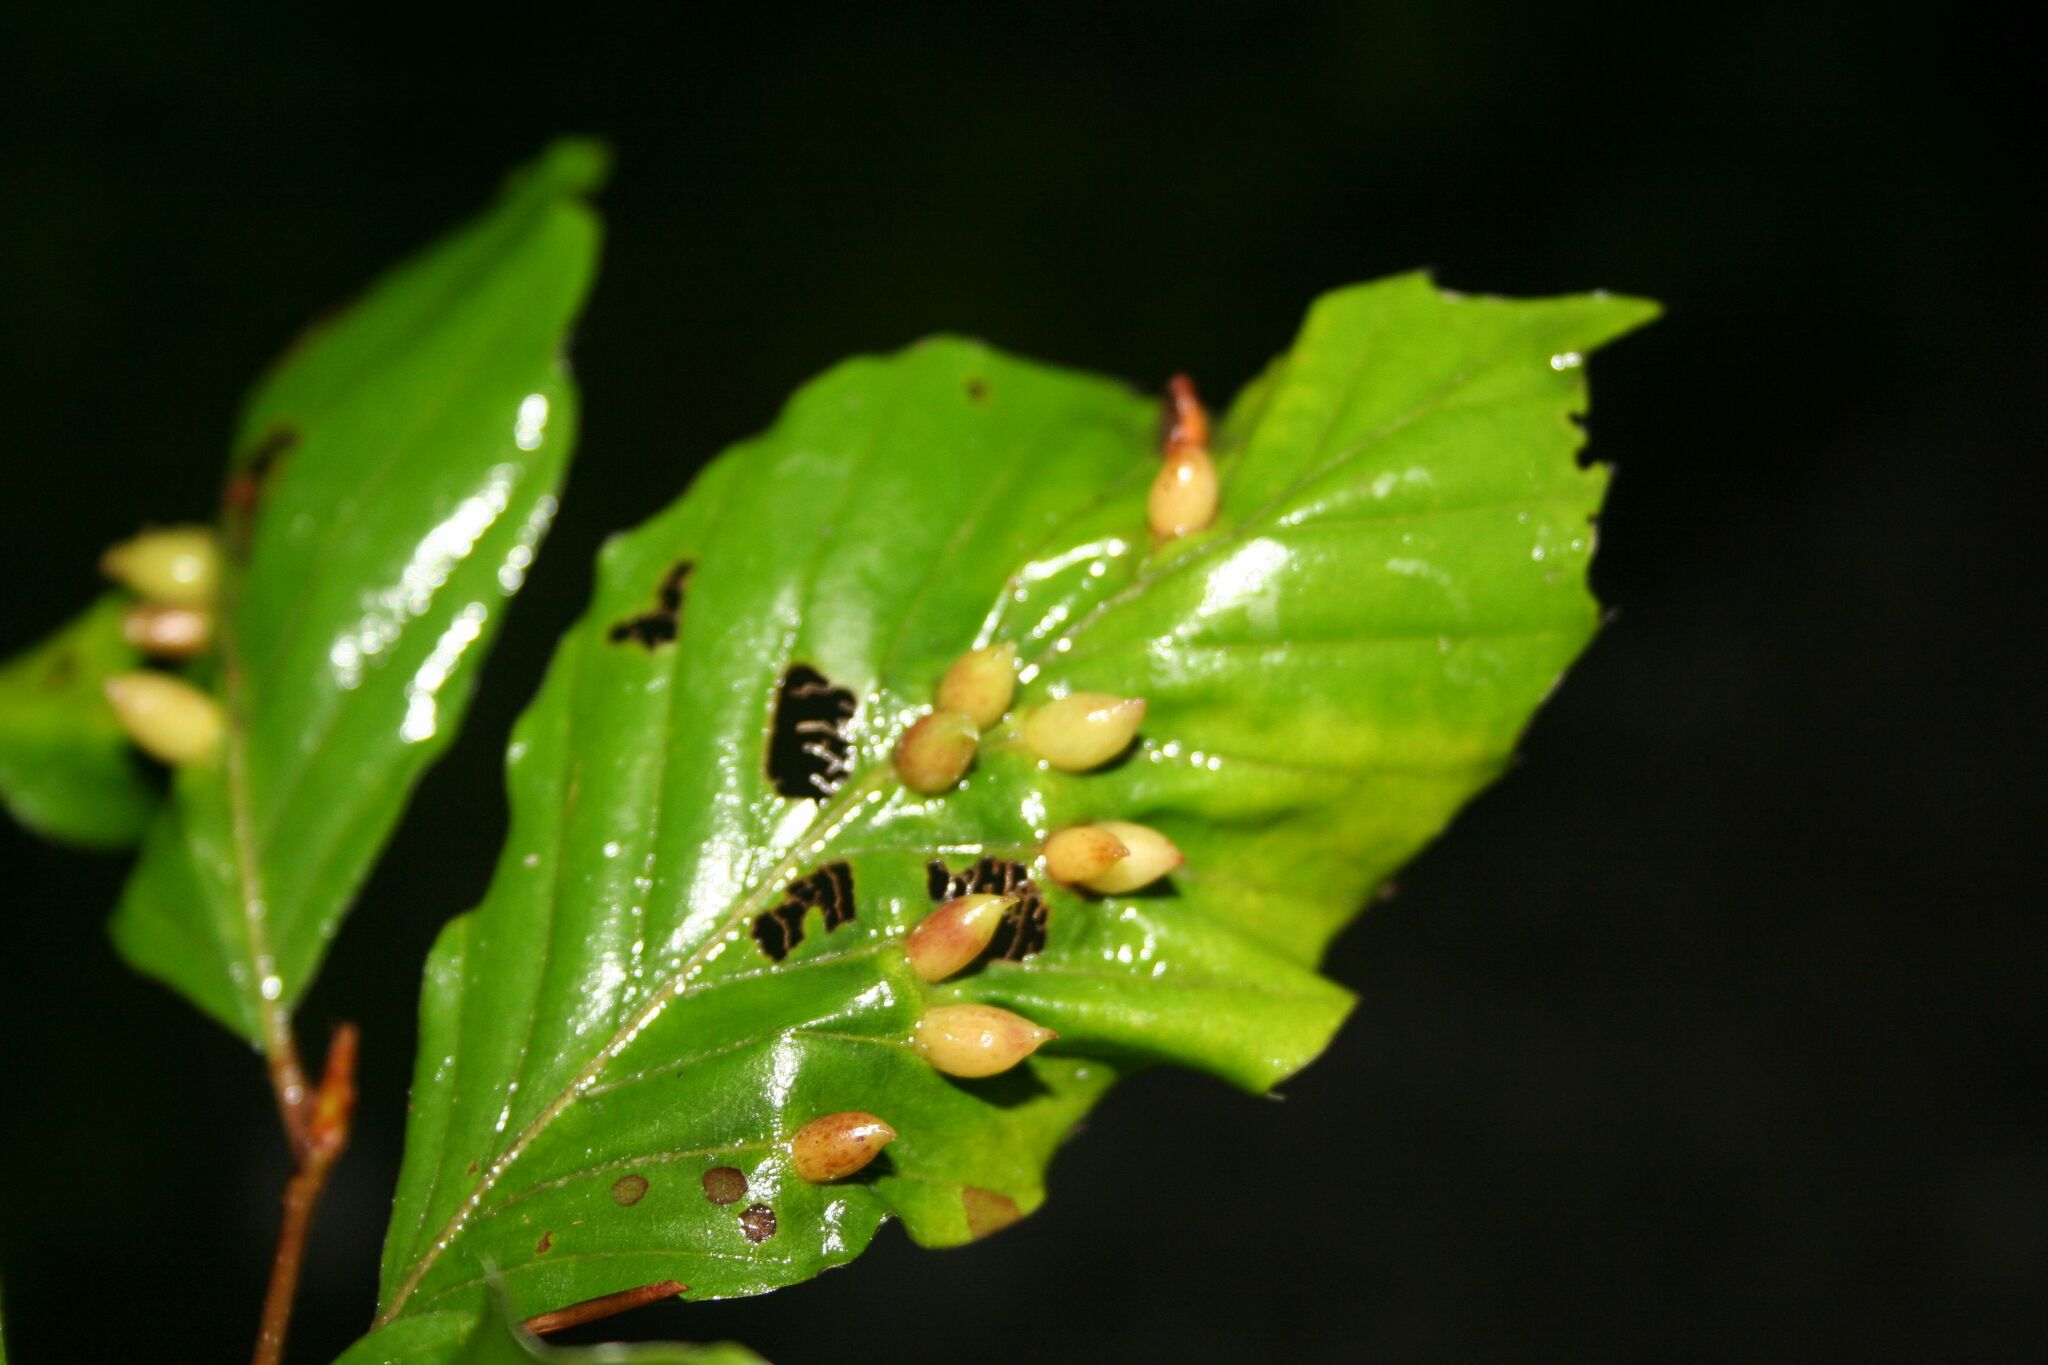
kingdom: Animalia
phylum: Arthropoda
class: Insecta
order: Diptera
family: Cecidomyiidae
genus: Mikiola
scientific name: Mikiola fagi
